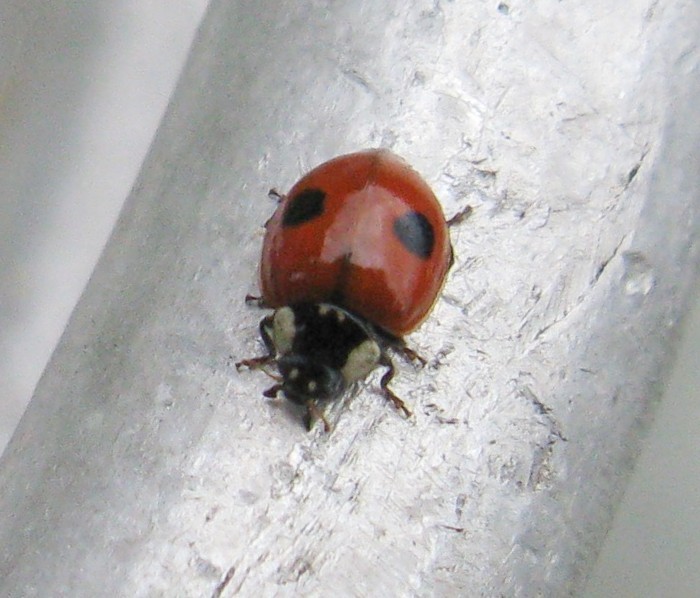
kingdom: Animalia
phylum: Arthropoda
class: Insecta
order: Coleoptera
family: Coccinellidae
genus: Adalia
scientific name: Adalia bipunctata
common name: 2-spot ladybird
